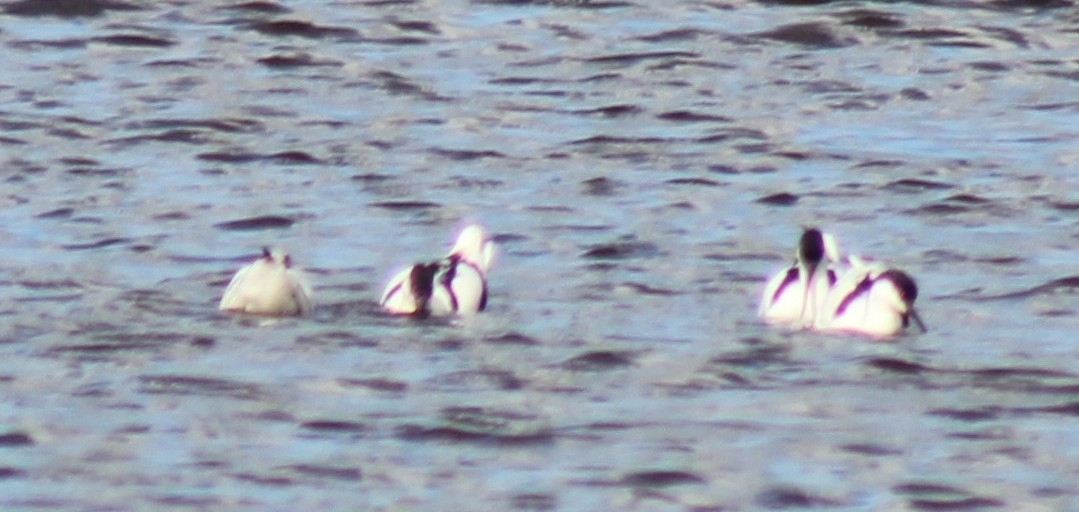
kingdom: Animalia
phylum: Chordata
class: Aves
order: Charadriiformes
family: Recurvirostridae
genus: Recurvirostra
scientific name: Recurvirostra avosetta
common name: Pied avocet
